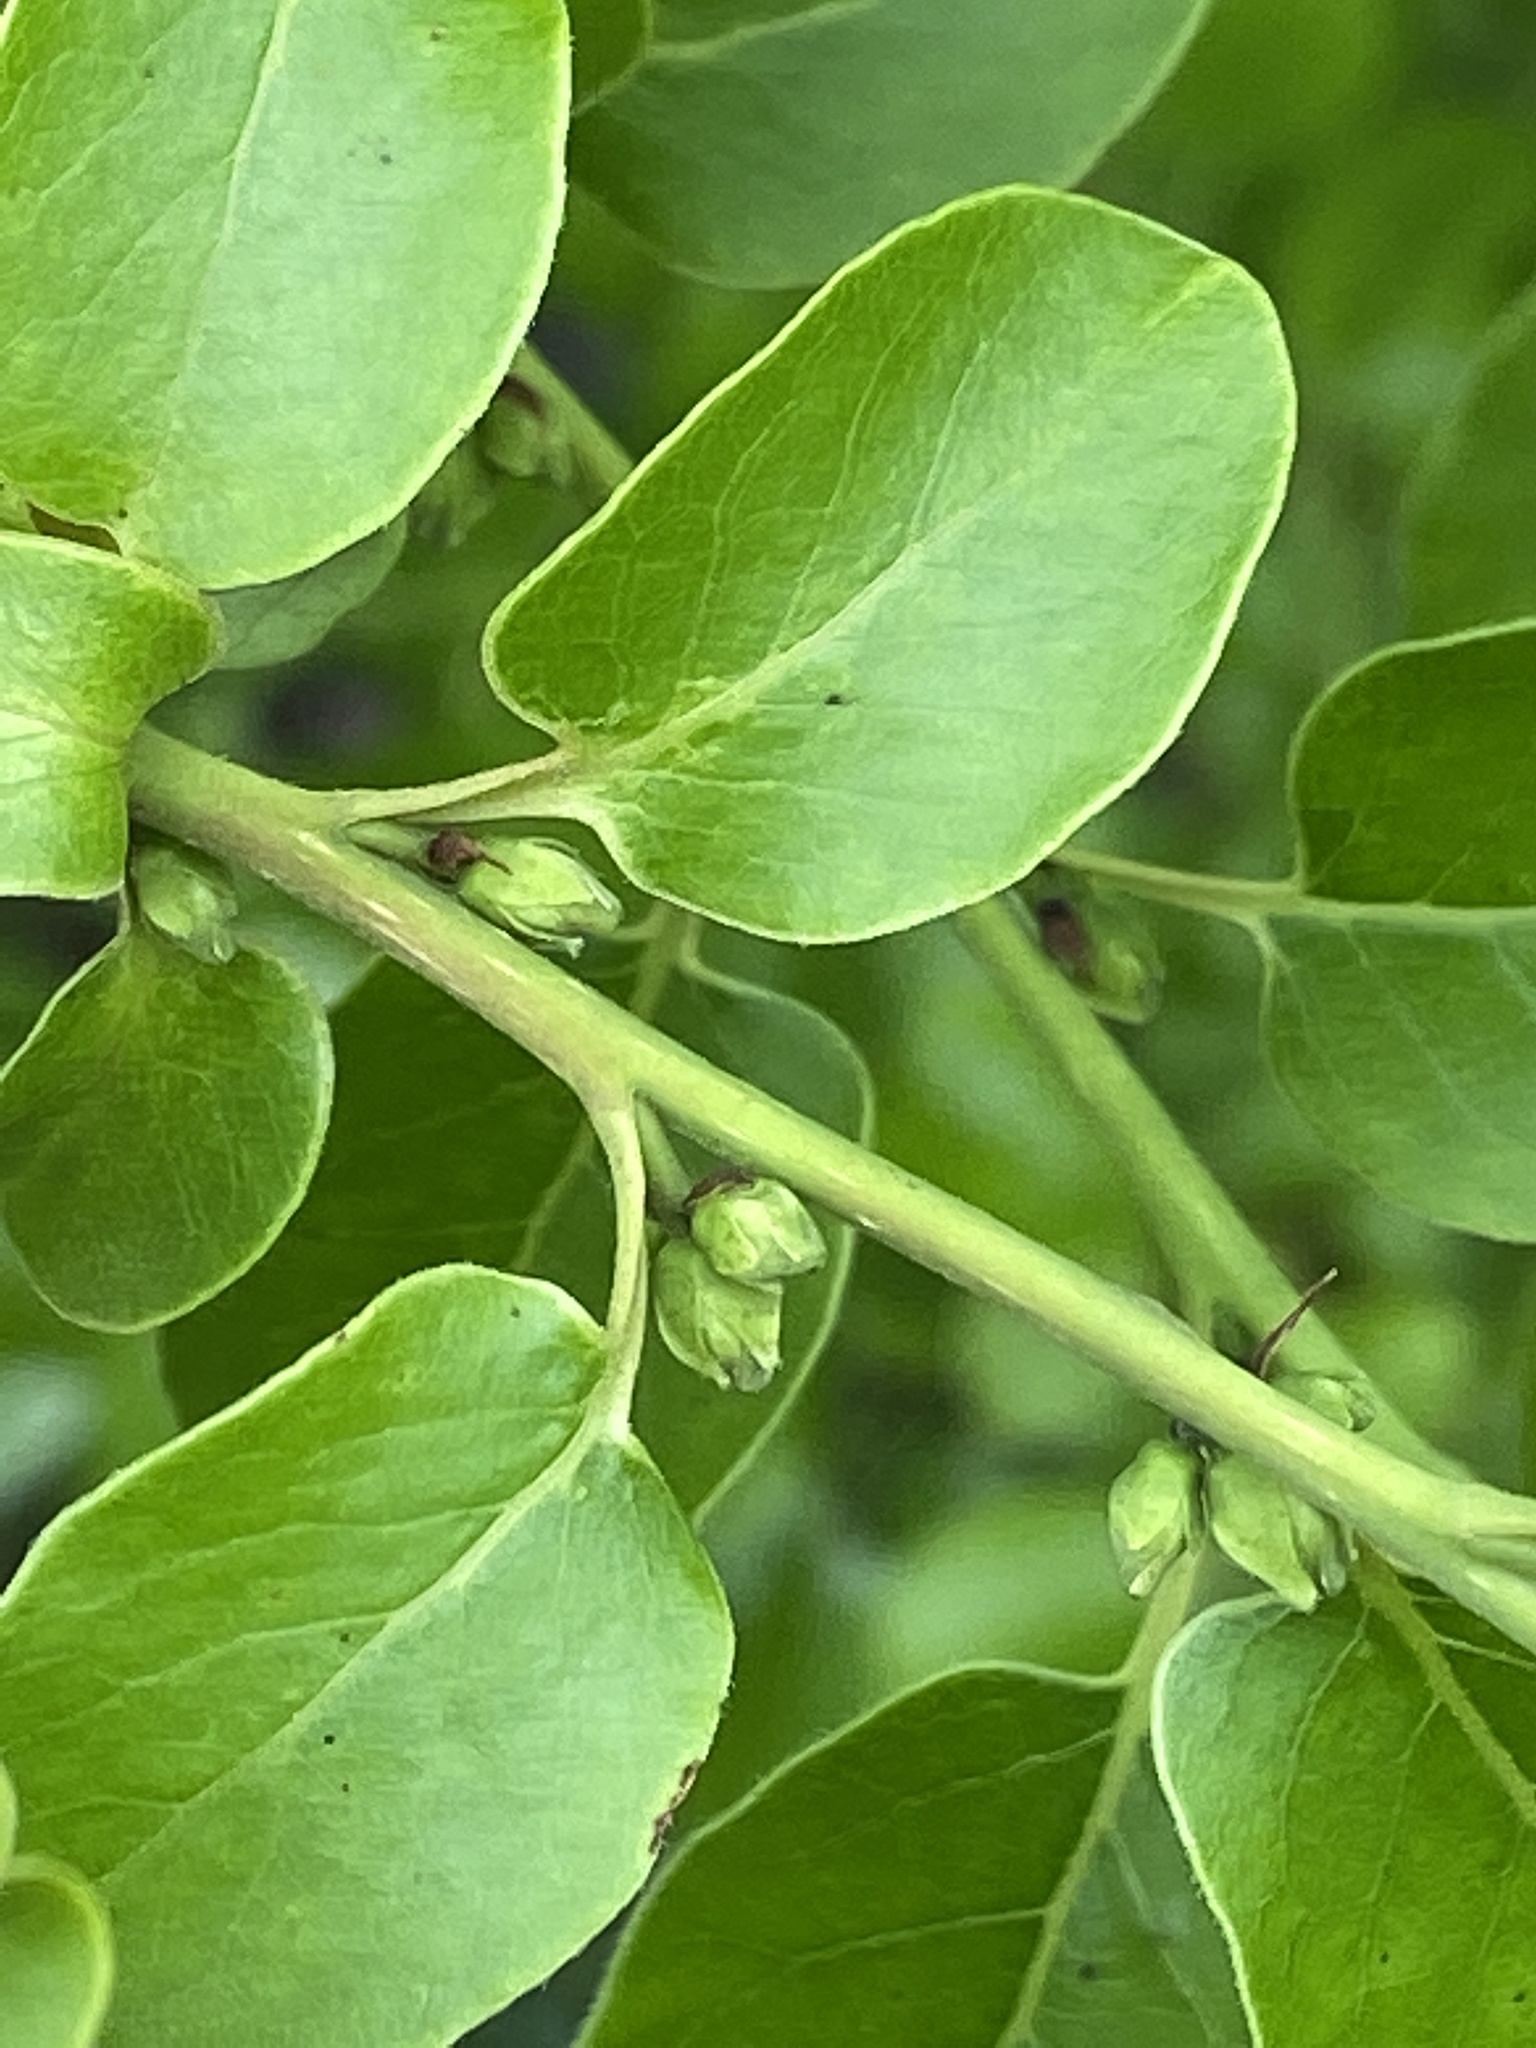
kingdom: Plantae
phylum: Tracheophyta
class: Magnoliopsida
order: Ericales
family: Ebenaceae
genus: Diospyros
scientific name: Diospyros virginiana
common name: Persimmon
